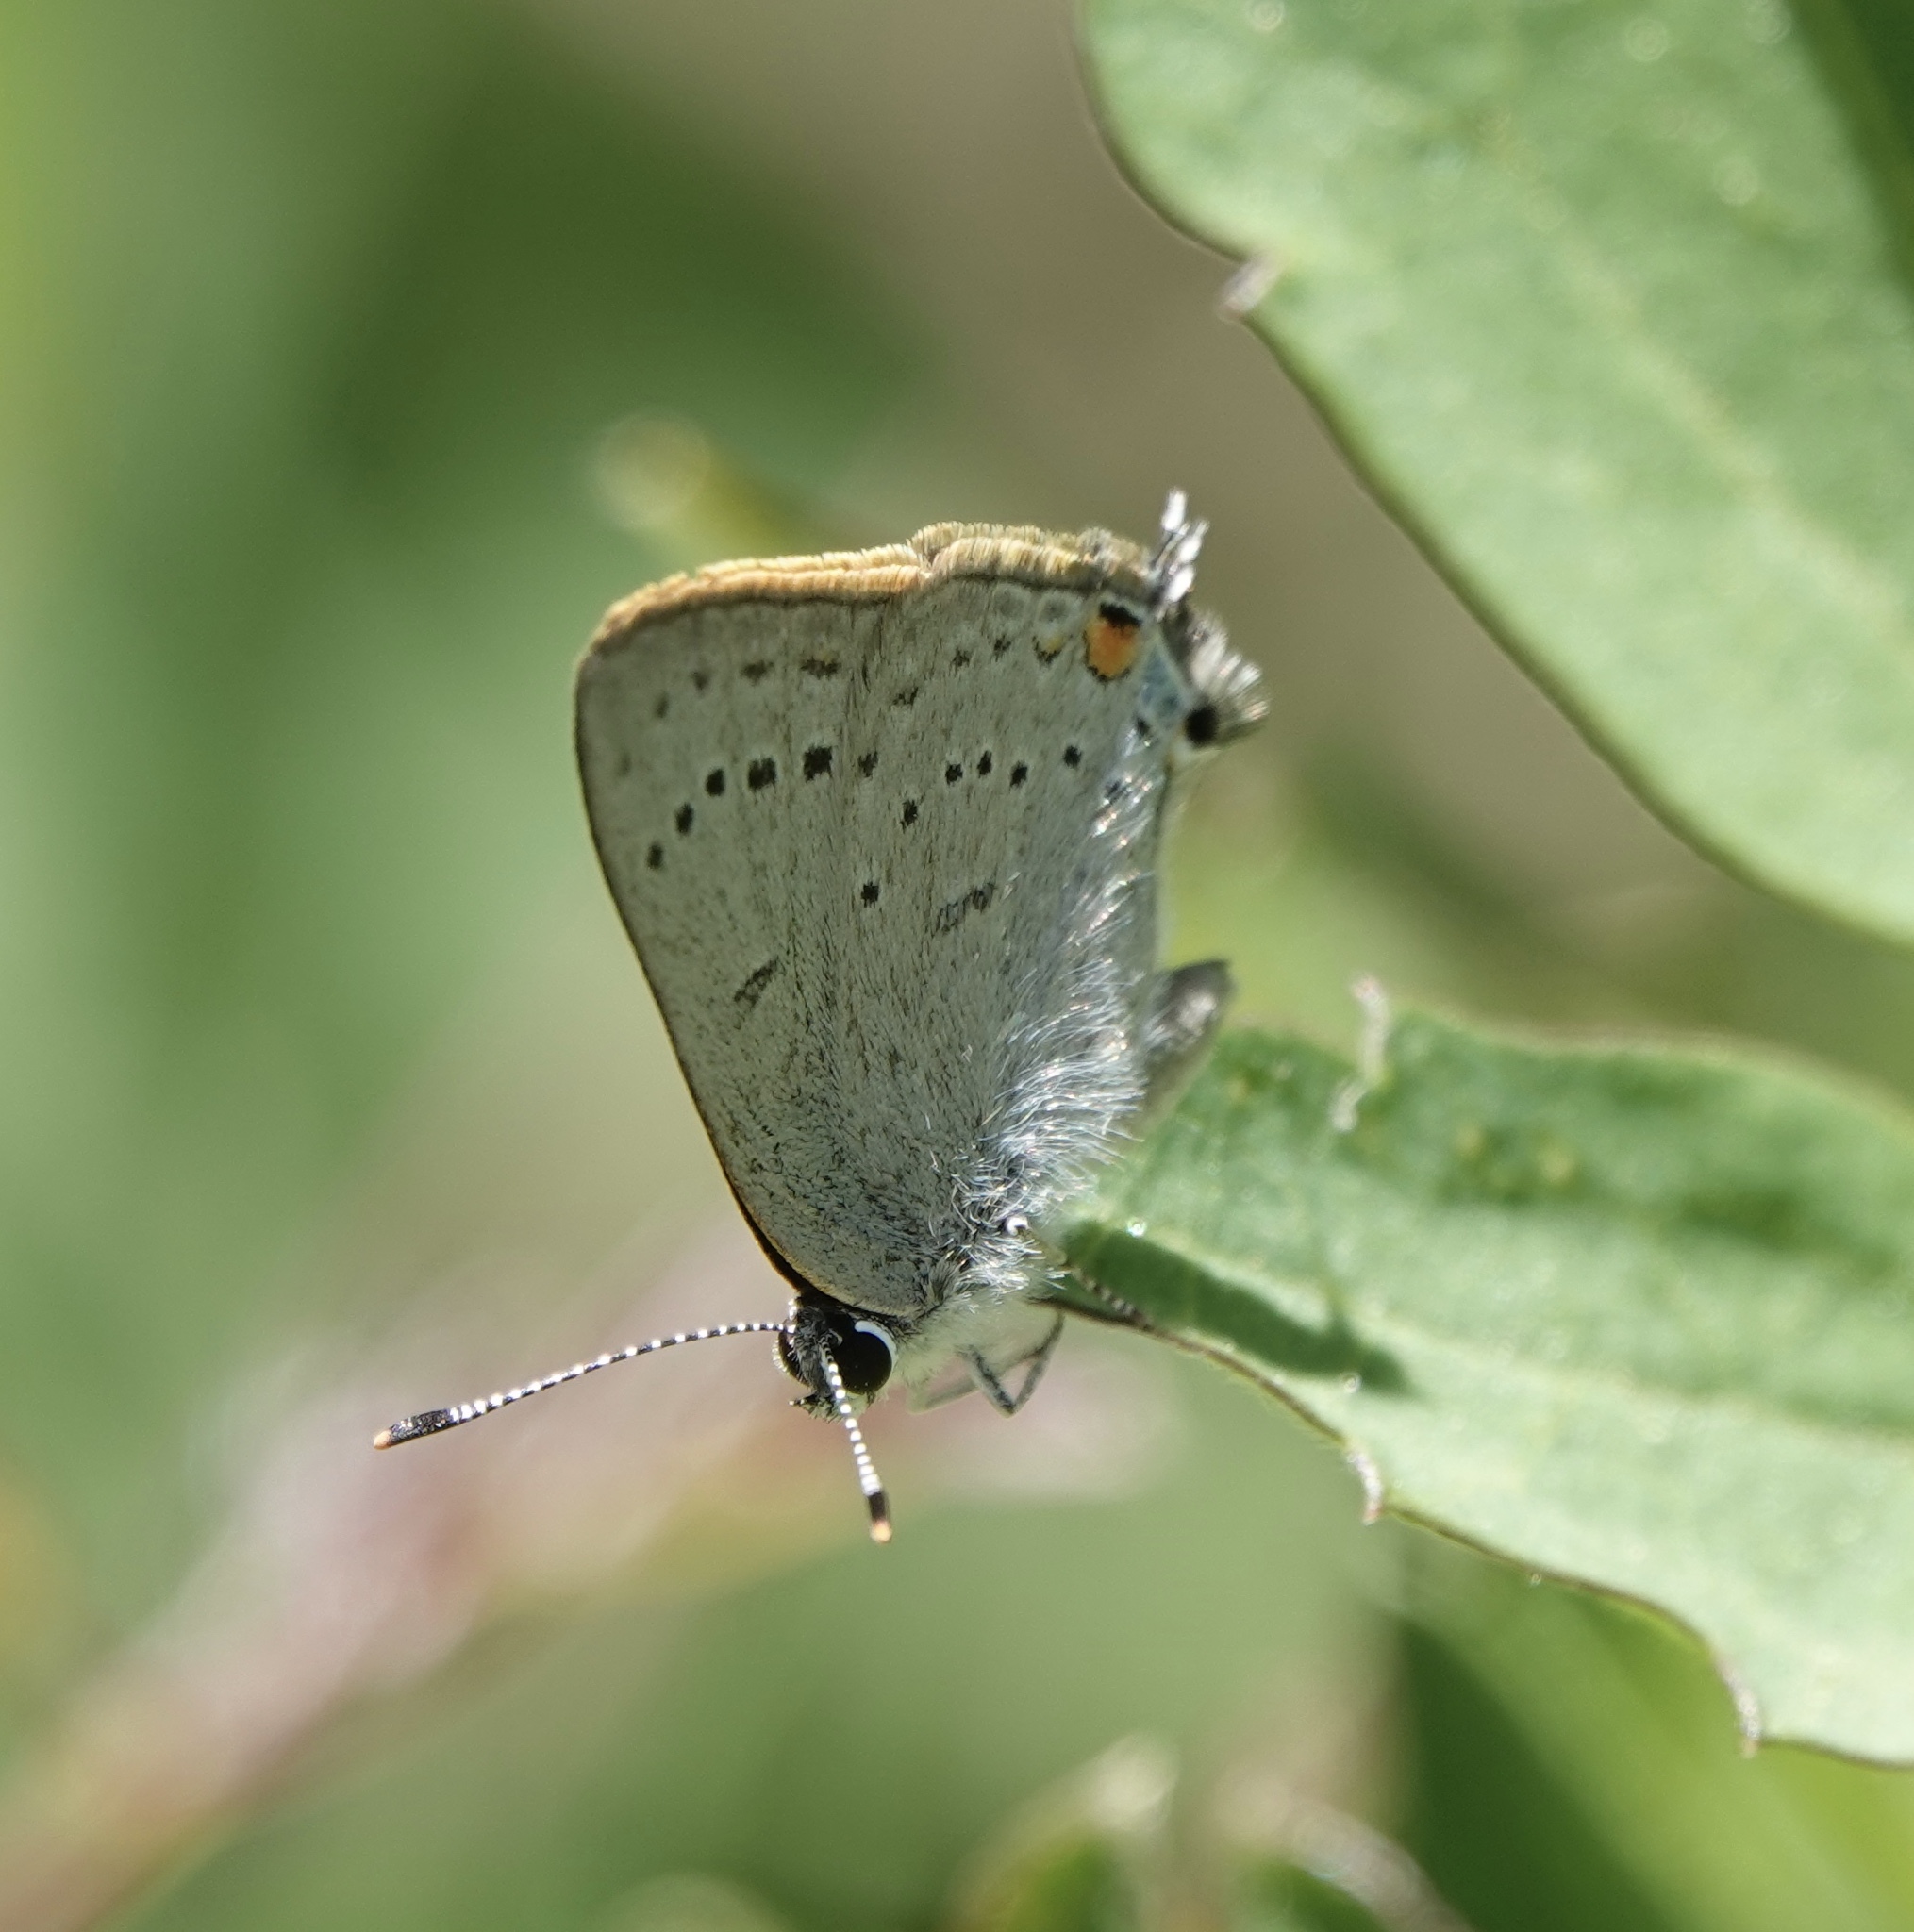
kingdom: Animalia
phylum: Arthropoda
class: Insecta
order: Lepidoptera
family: Lycaenidae
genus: Strymon
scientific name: Strymon sylvinus
